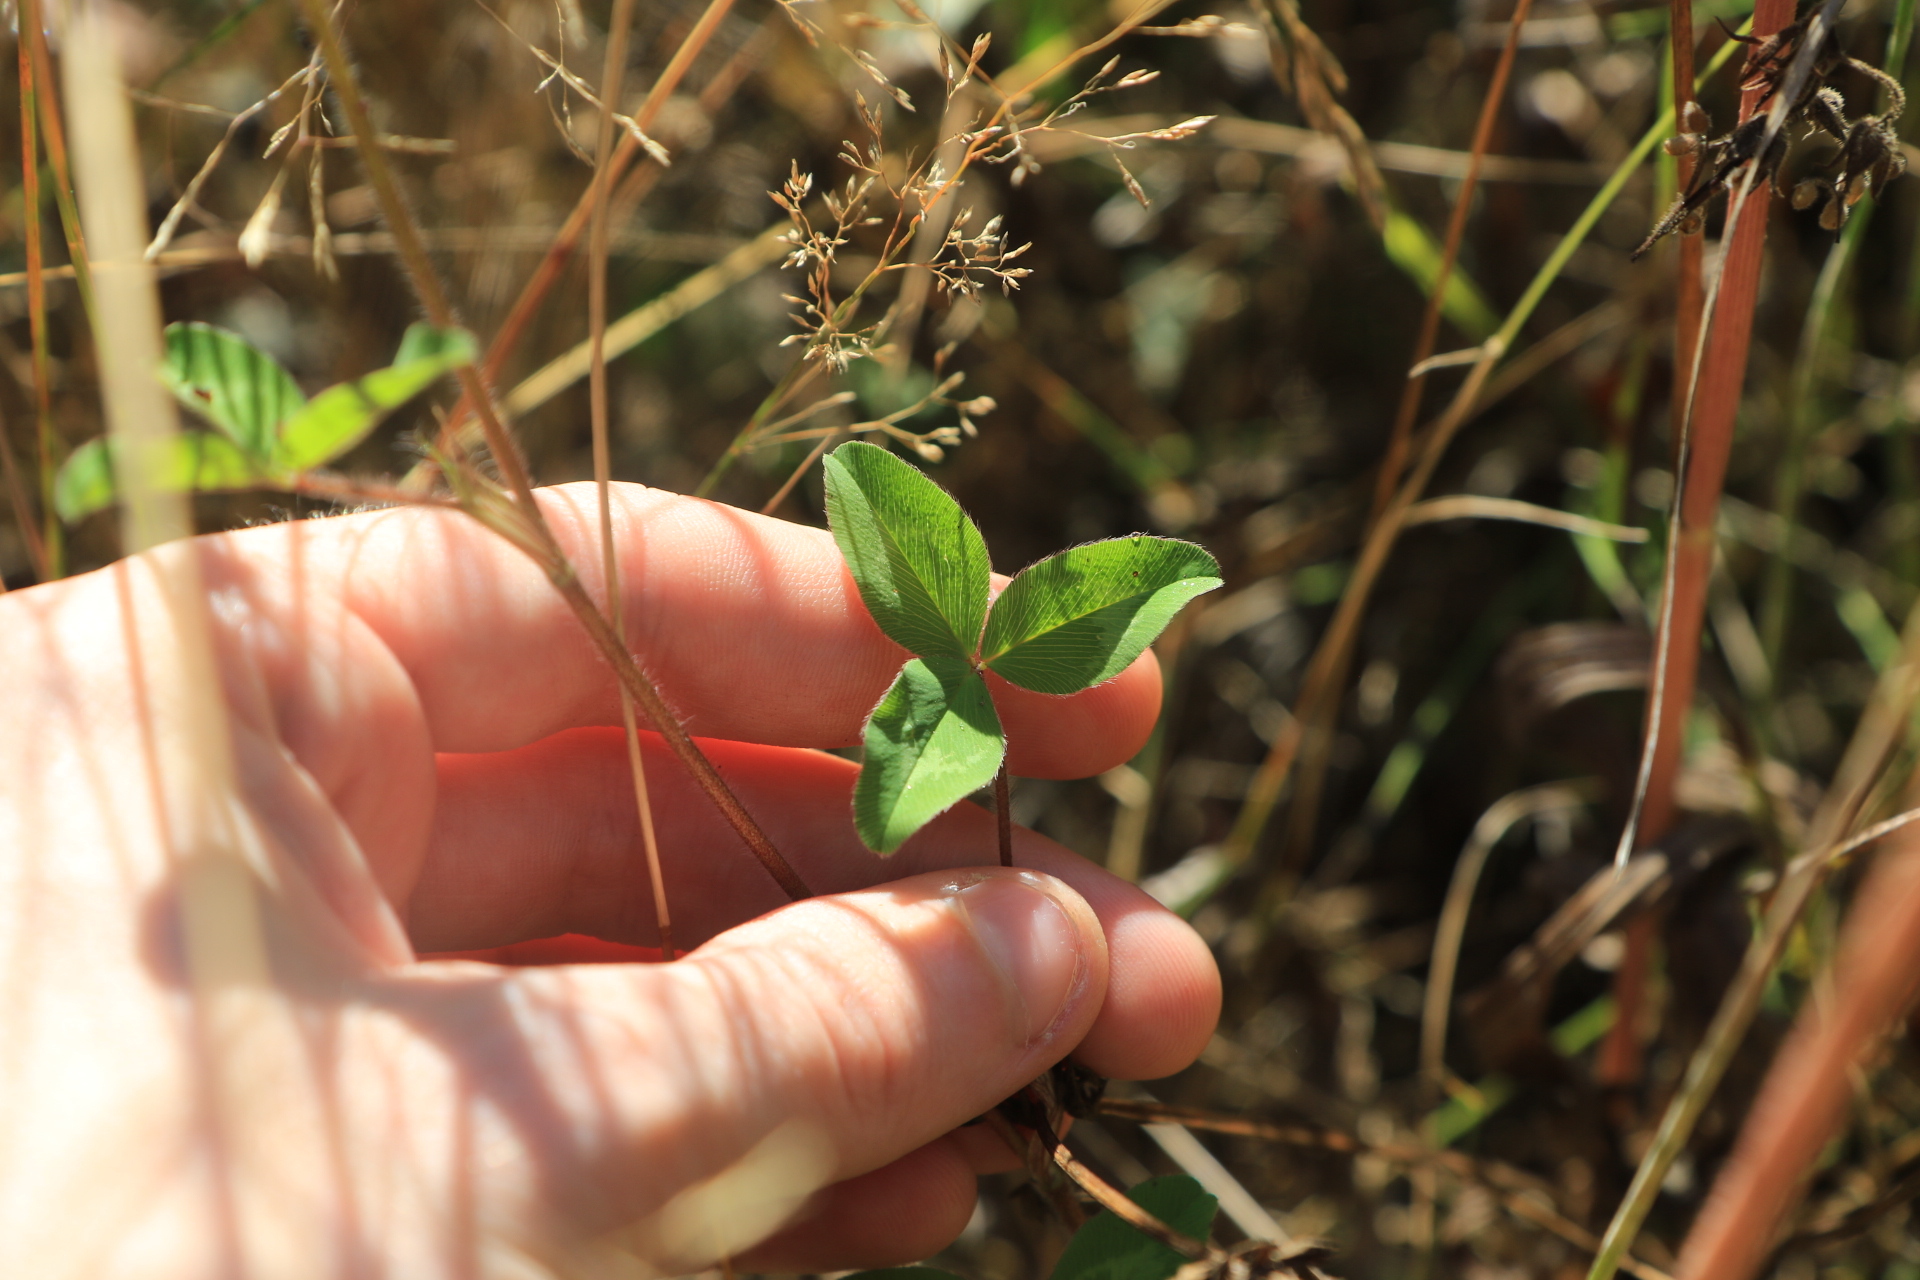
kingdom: Plantae
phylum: Tracheophyta
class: Magnoliopsida
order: Fabales
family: Fabaceae
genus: Trifolium
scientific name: Trifolium pratense
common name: Red clover
